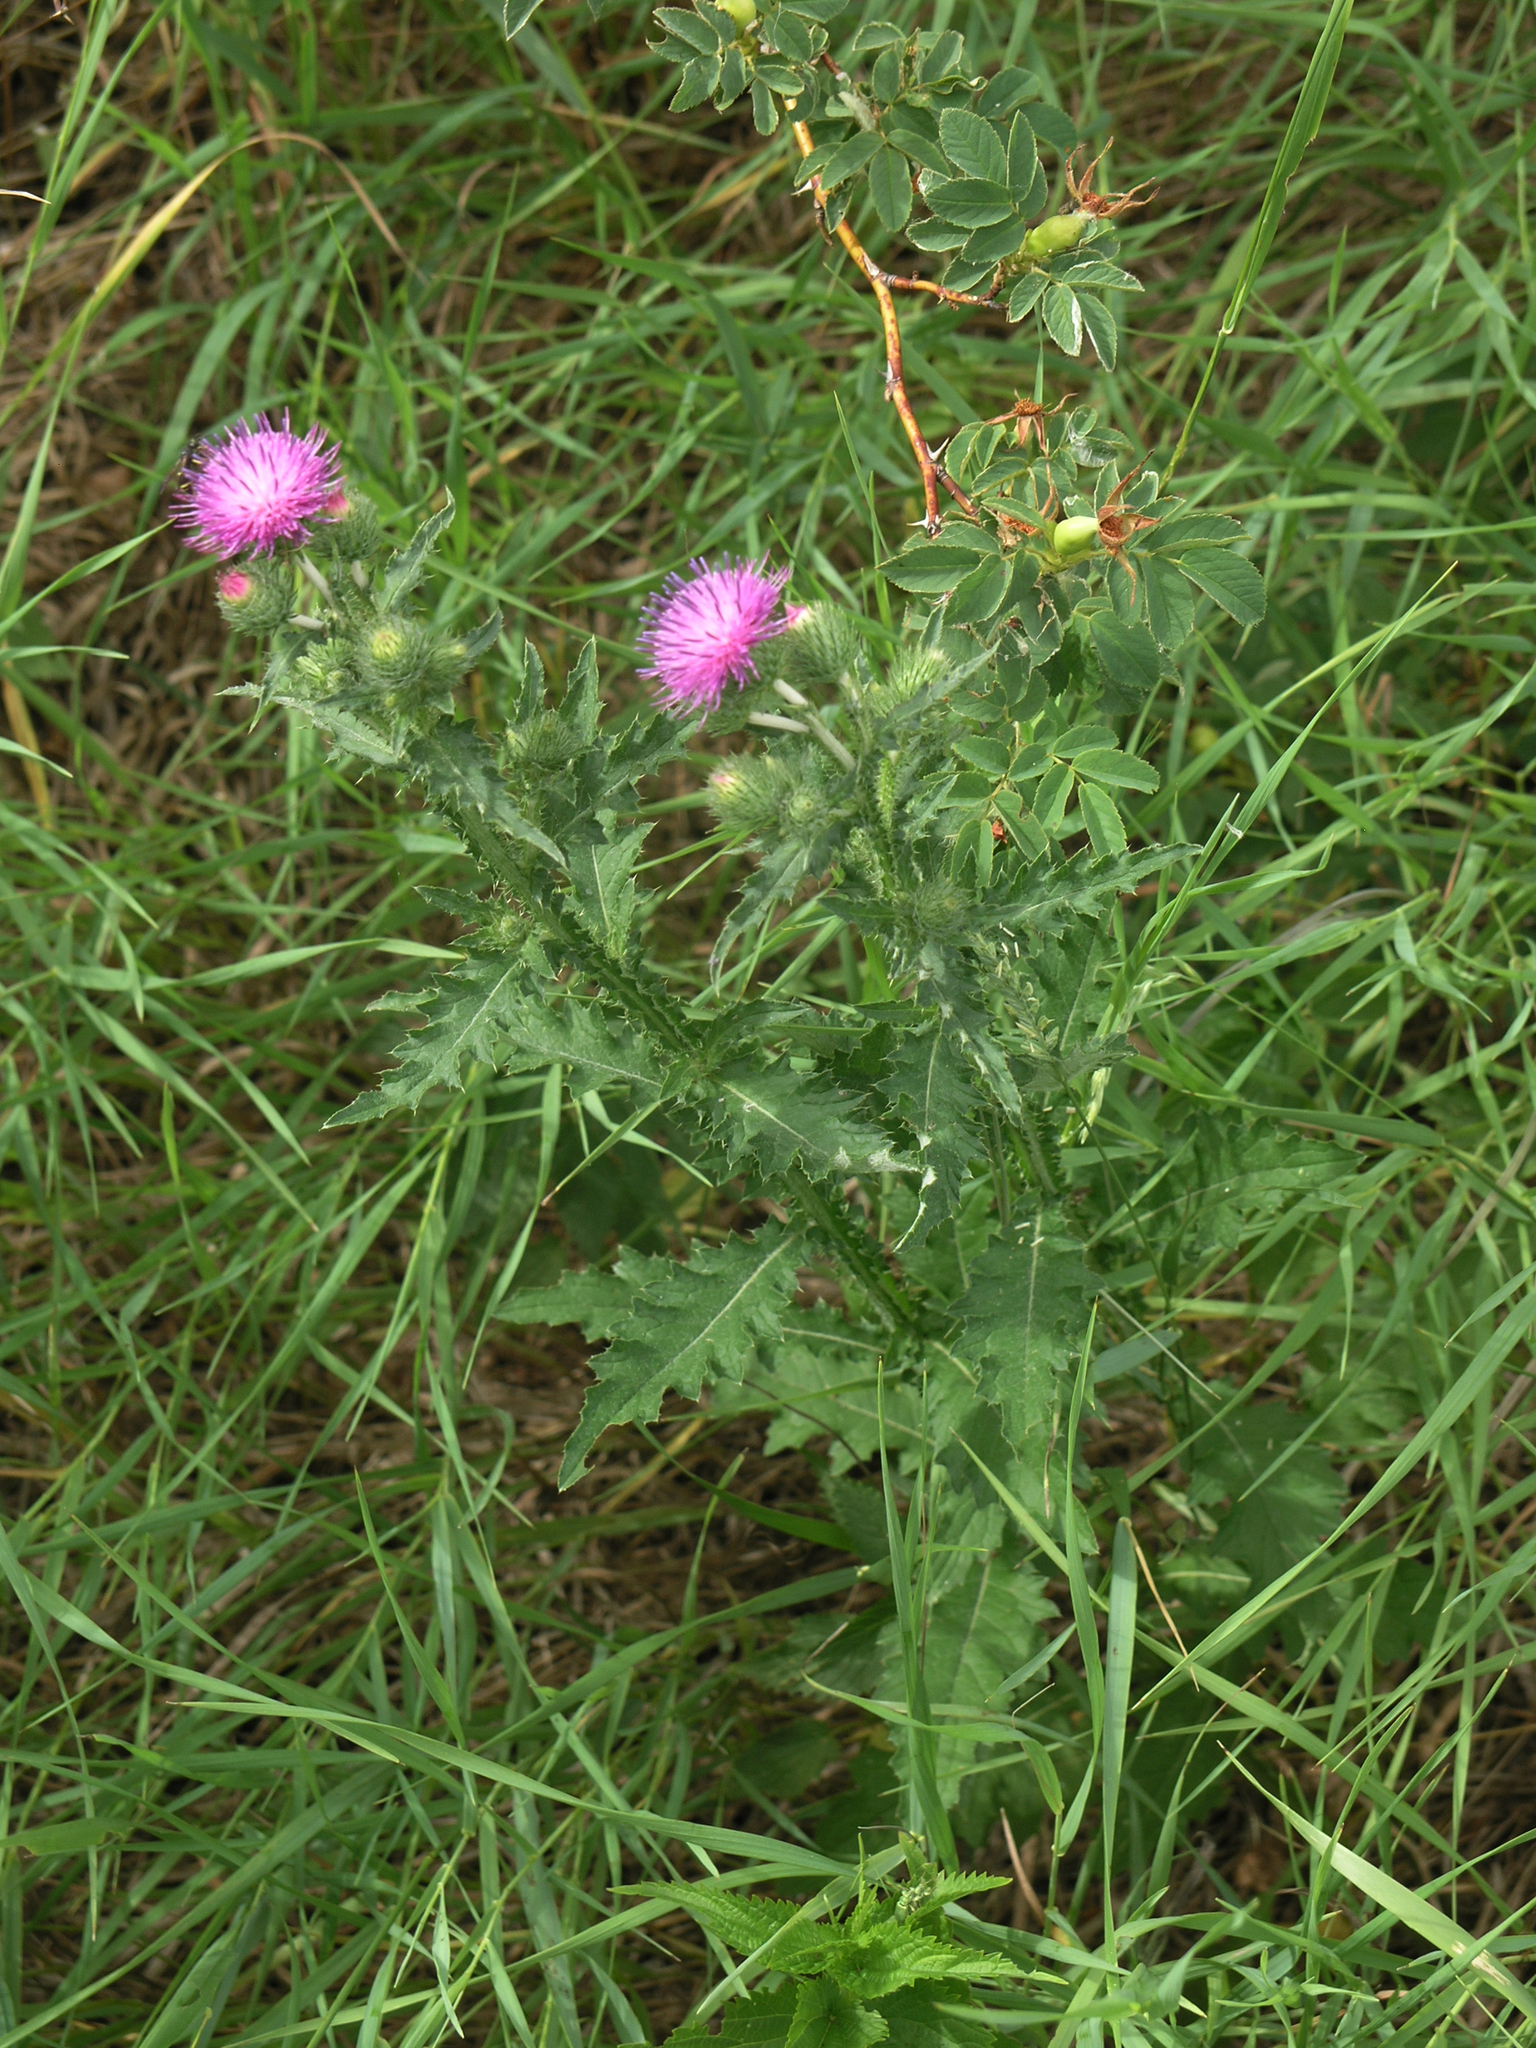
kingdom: Plantae
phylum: Tracheophyta
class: Magnoliopsida
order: Asterales
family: Asteraceae
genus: Carduus
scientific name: Carduus crispus
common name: Welted thistle
